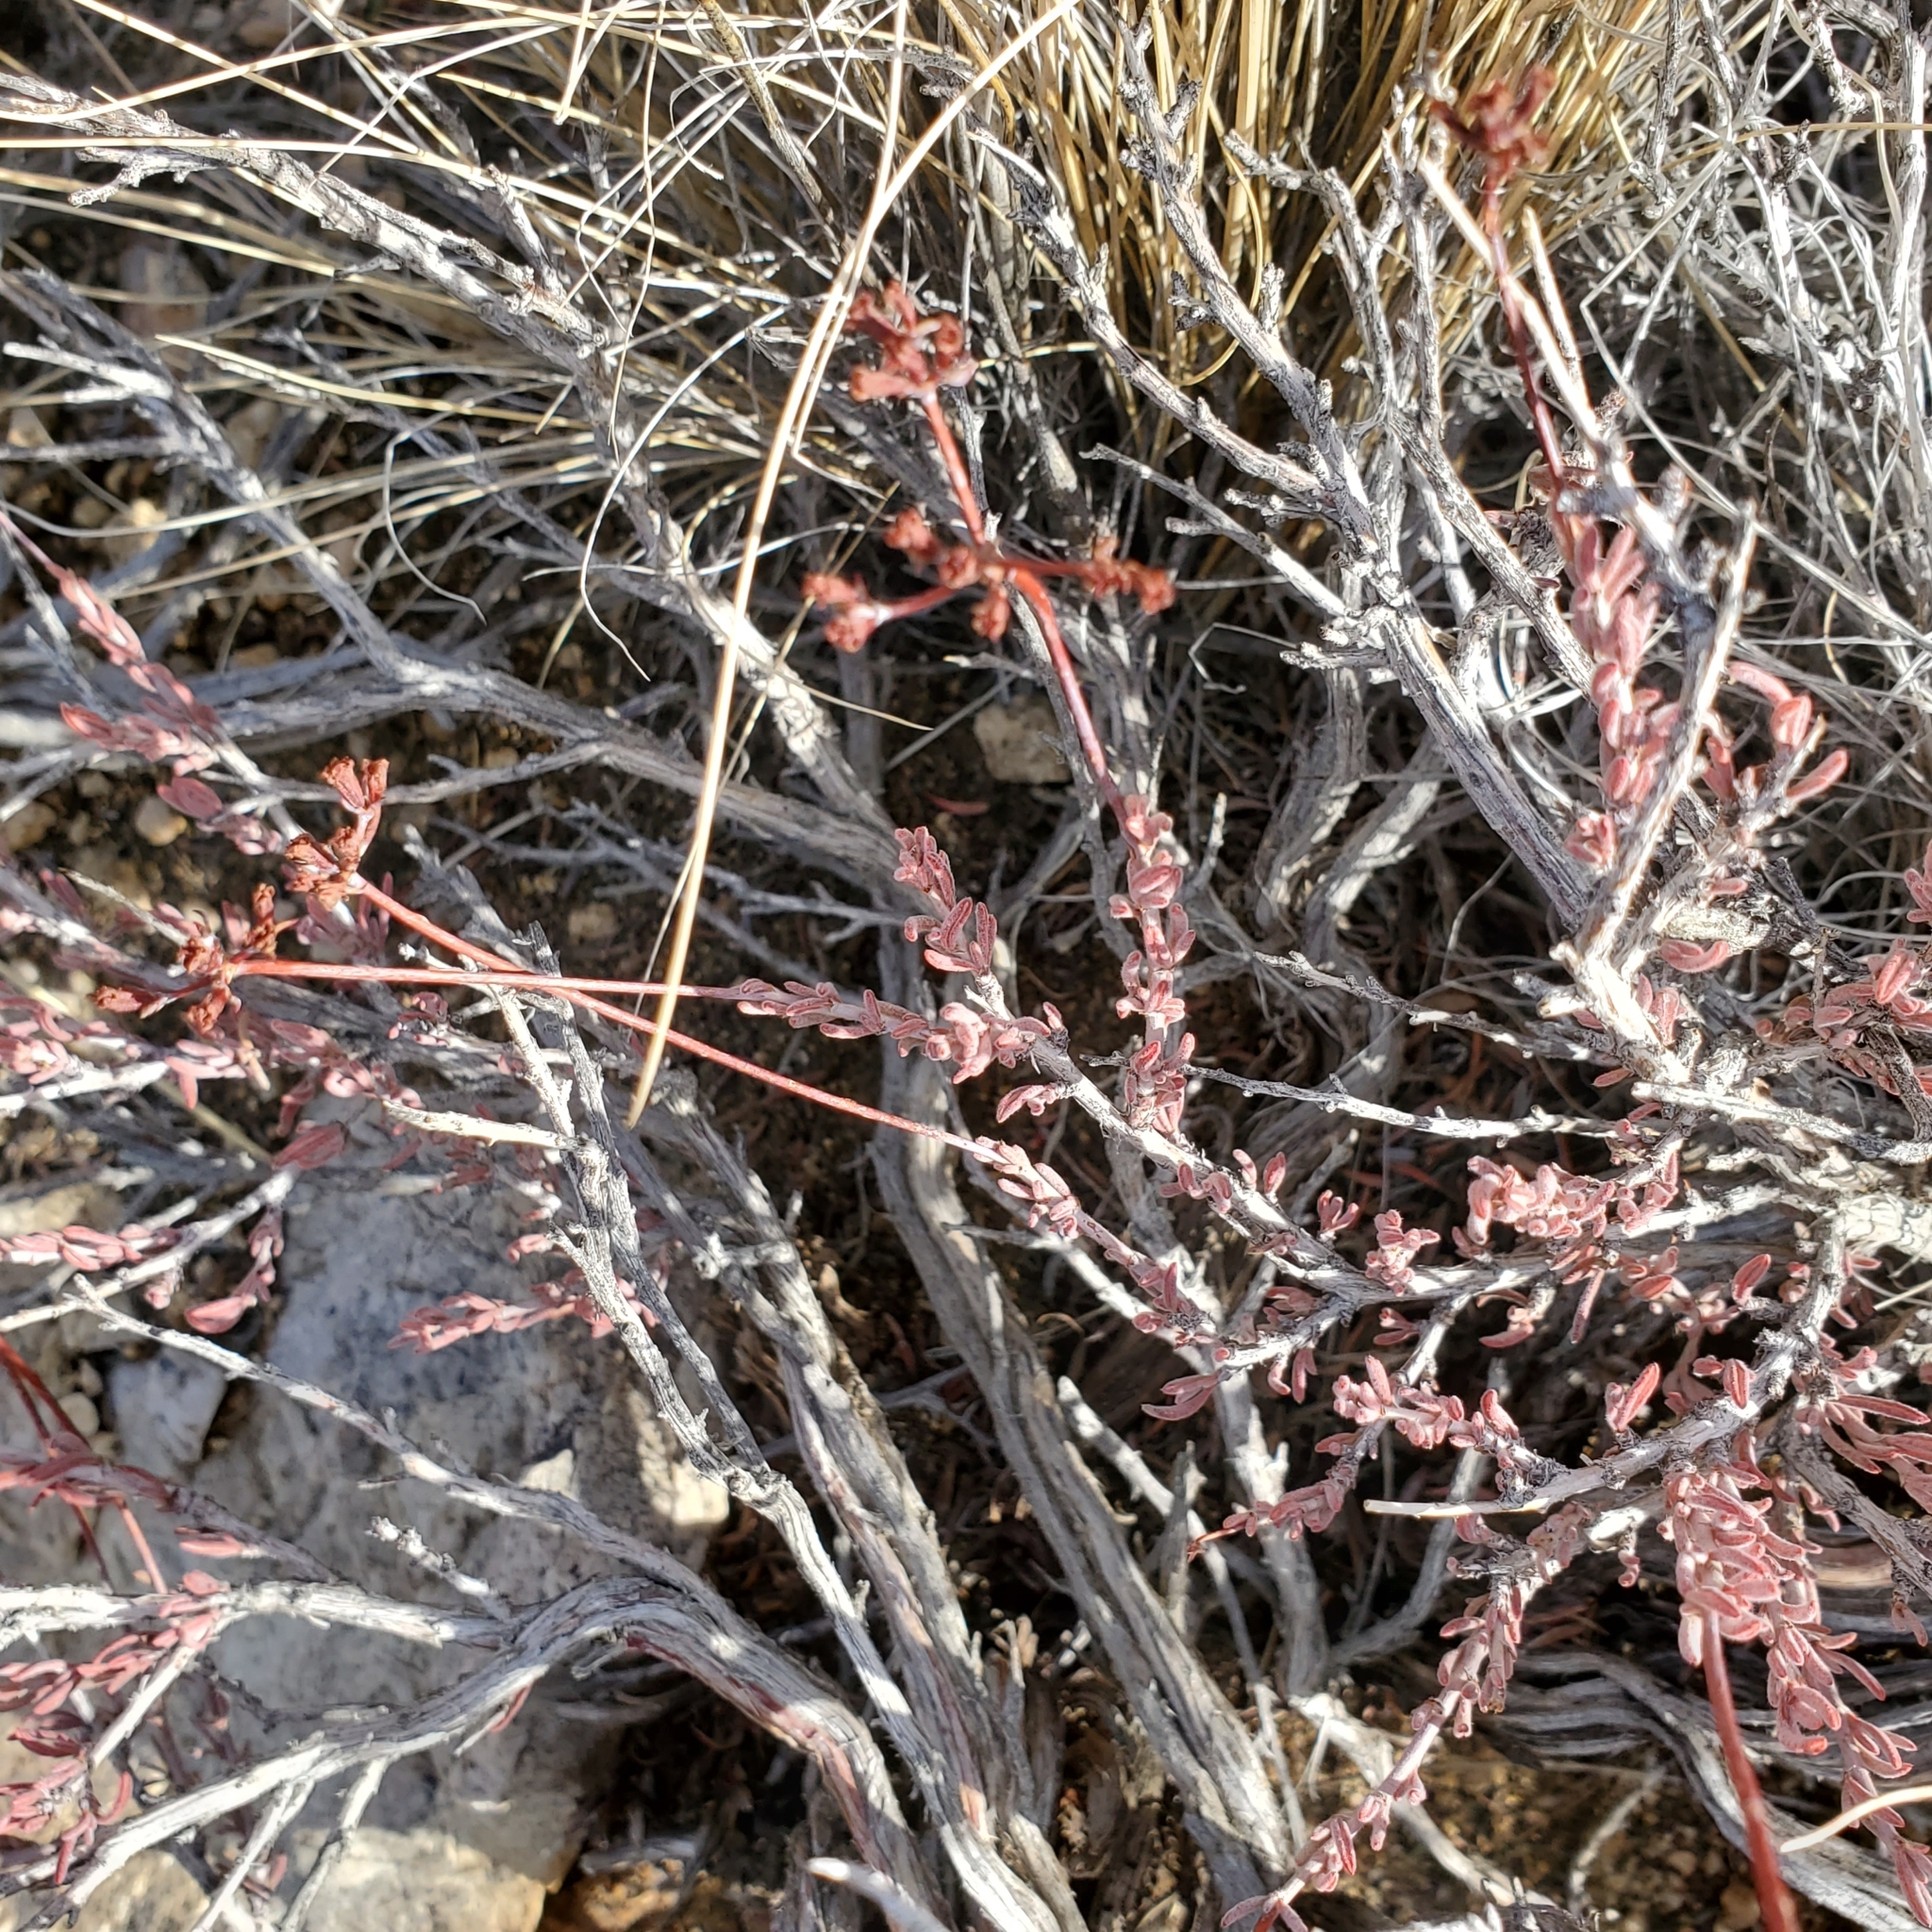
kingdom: Plantae
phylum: Tracheophyta
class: Magnoliopsida
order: Caryophyllales
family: Polygonaceae
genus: Eriogonum
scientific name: Eriogonum fasciculatum
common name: California wild buckwheat
